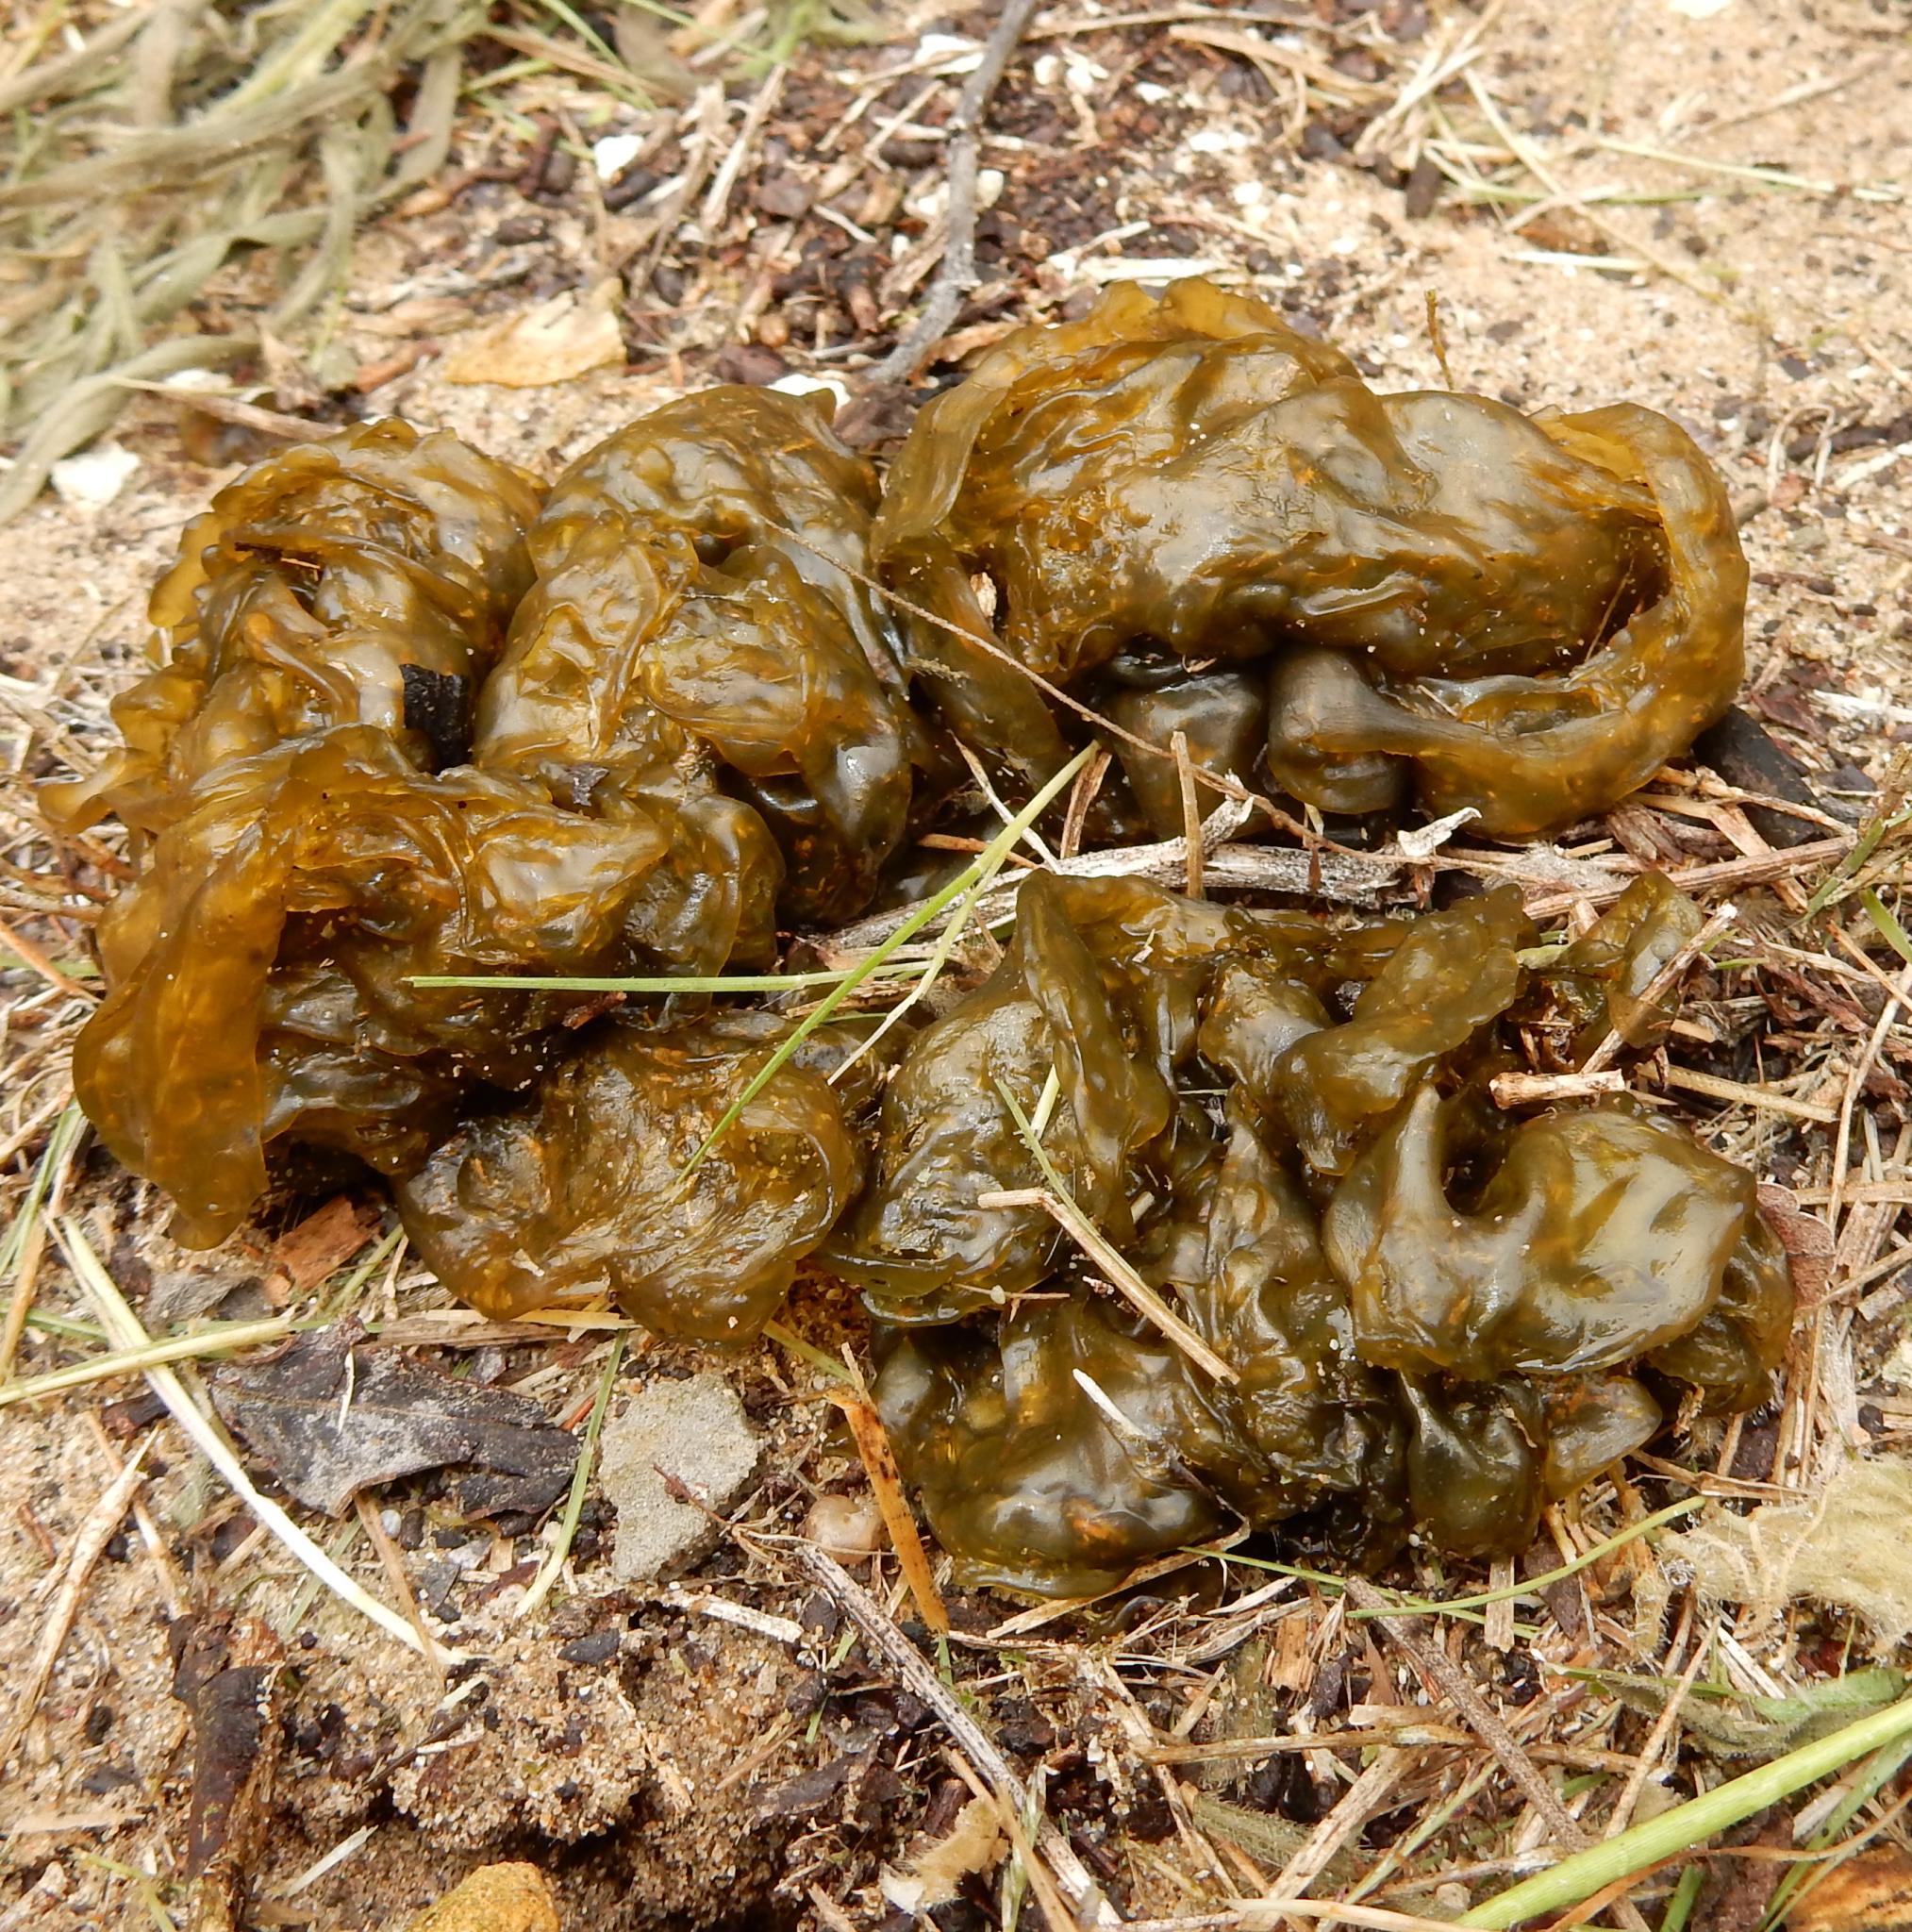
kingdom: Bacteria
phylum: Cyanobacteria
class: Cyanobacteriia
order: Cyanobacteriales
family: Nostocaceae
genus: Nostoc
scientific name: Nostoc commune
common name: Star jelly
